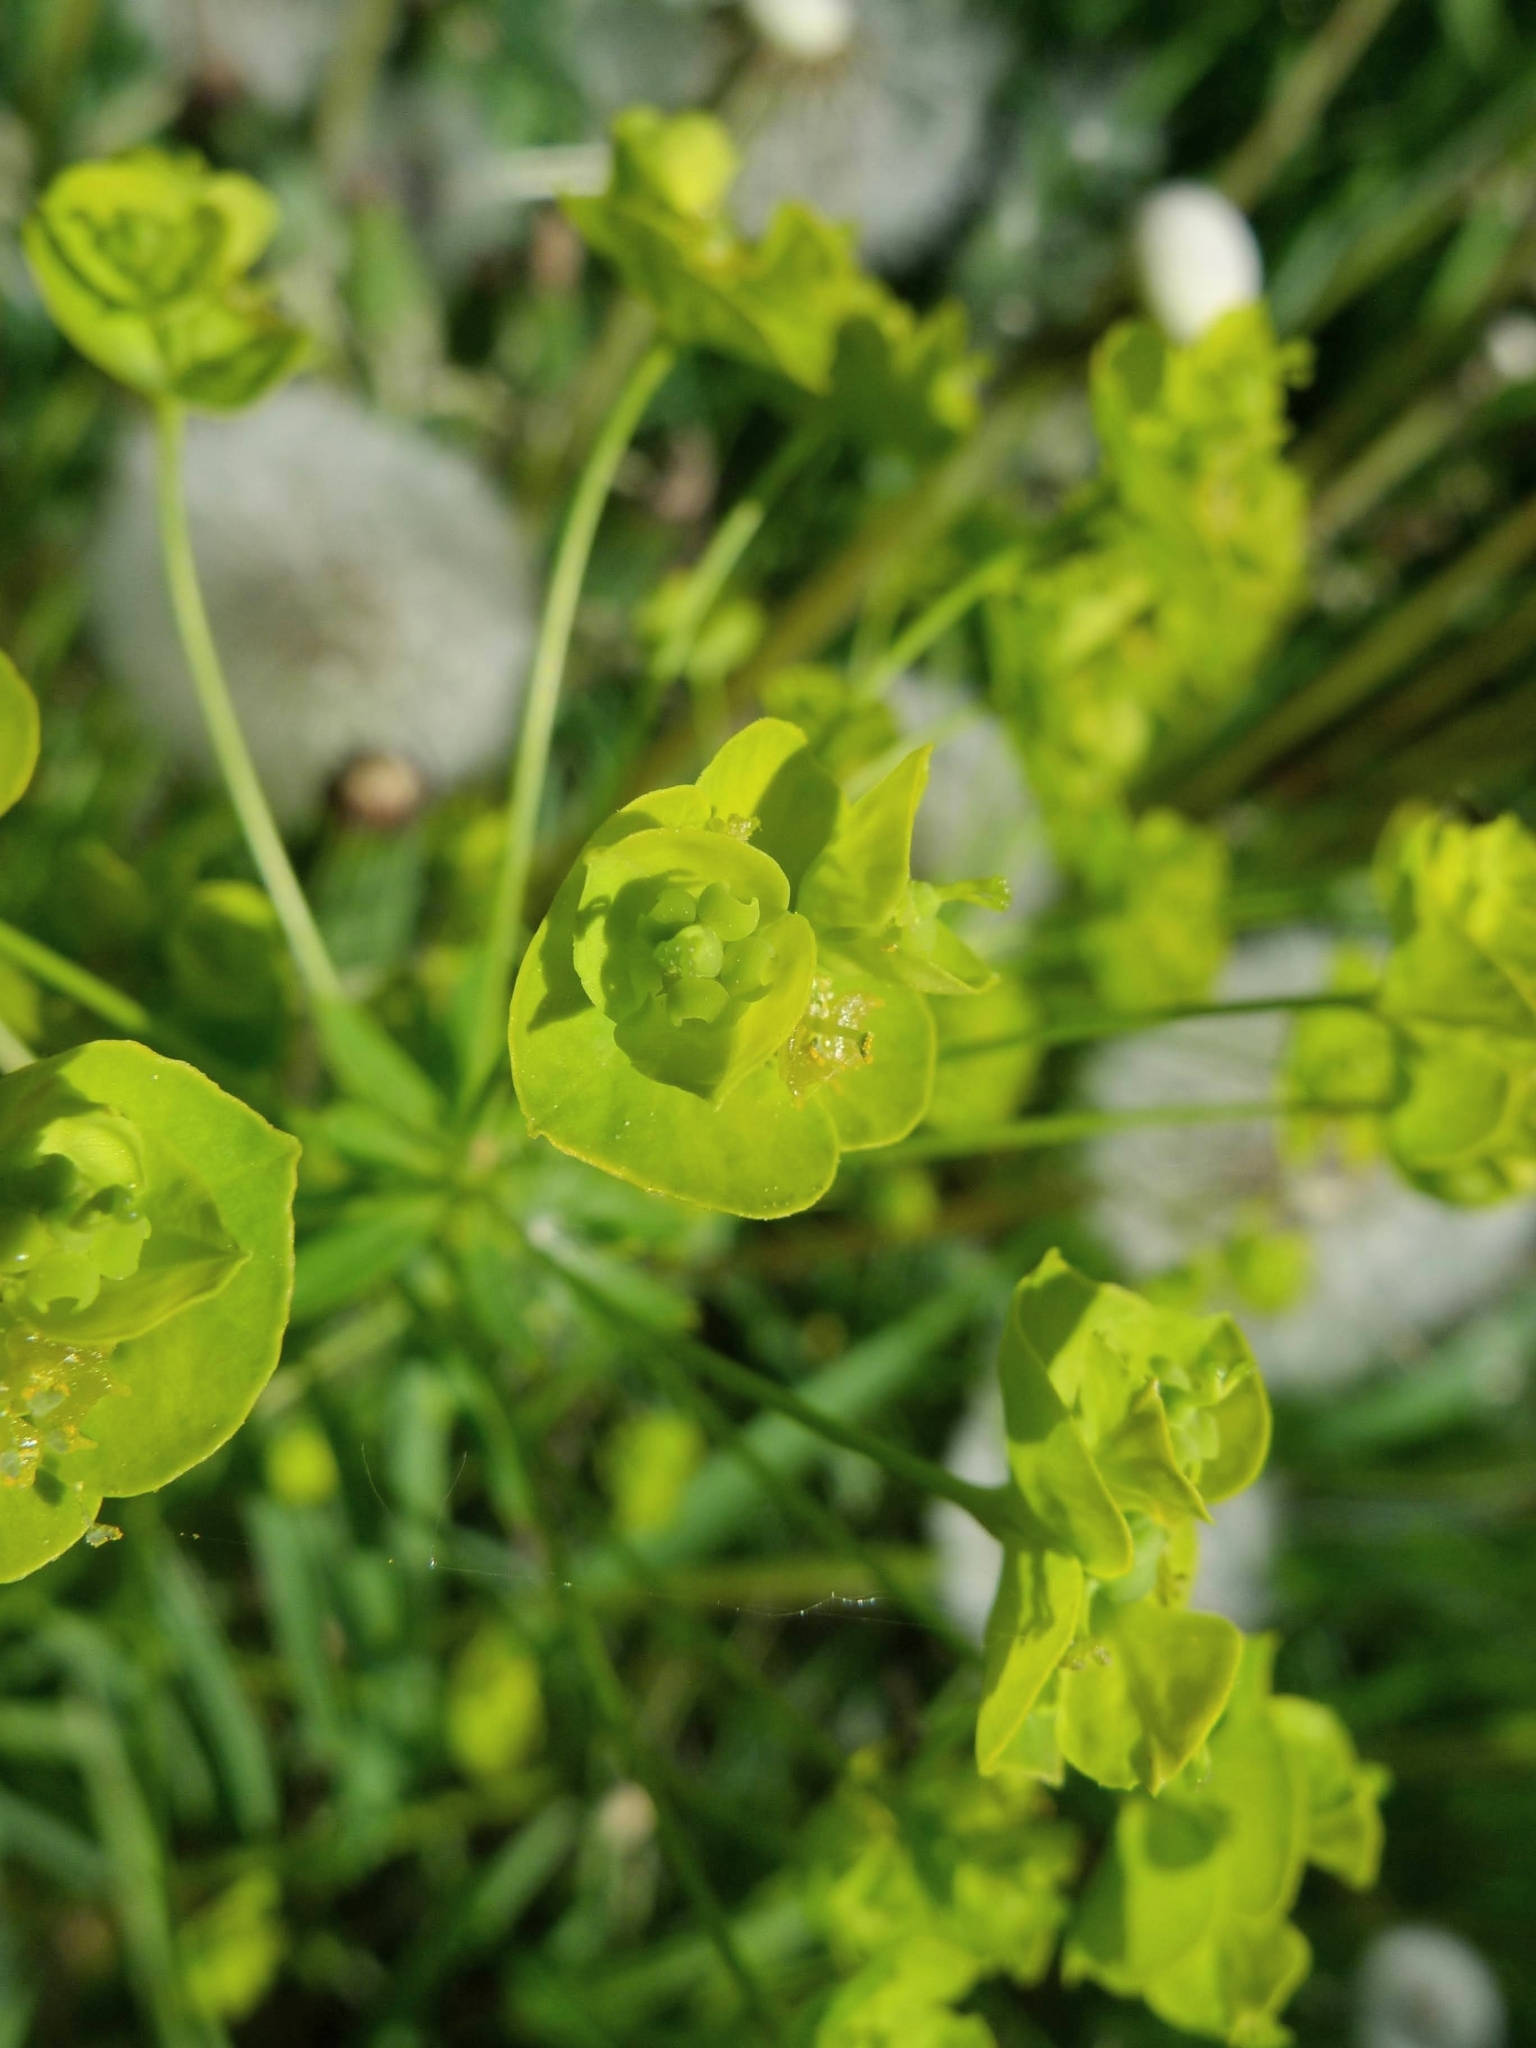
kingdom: Plantae
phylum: Tracheophyta
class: Magnoliopsida
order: Malpighiales
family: Euphorbiaceae
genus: Euphorbia
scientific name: Euphorbia esula
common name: Leafy spurge
